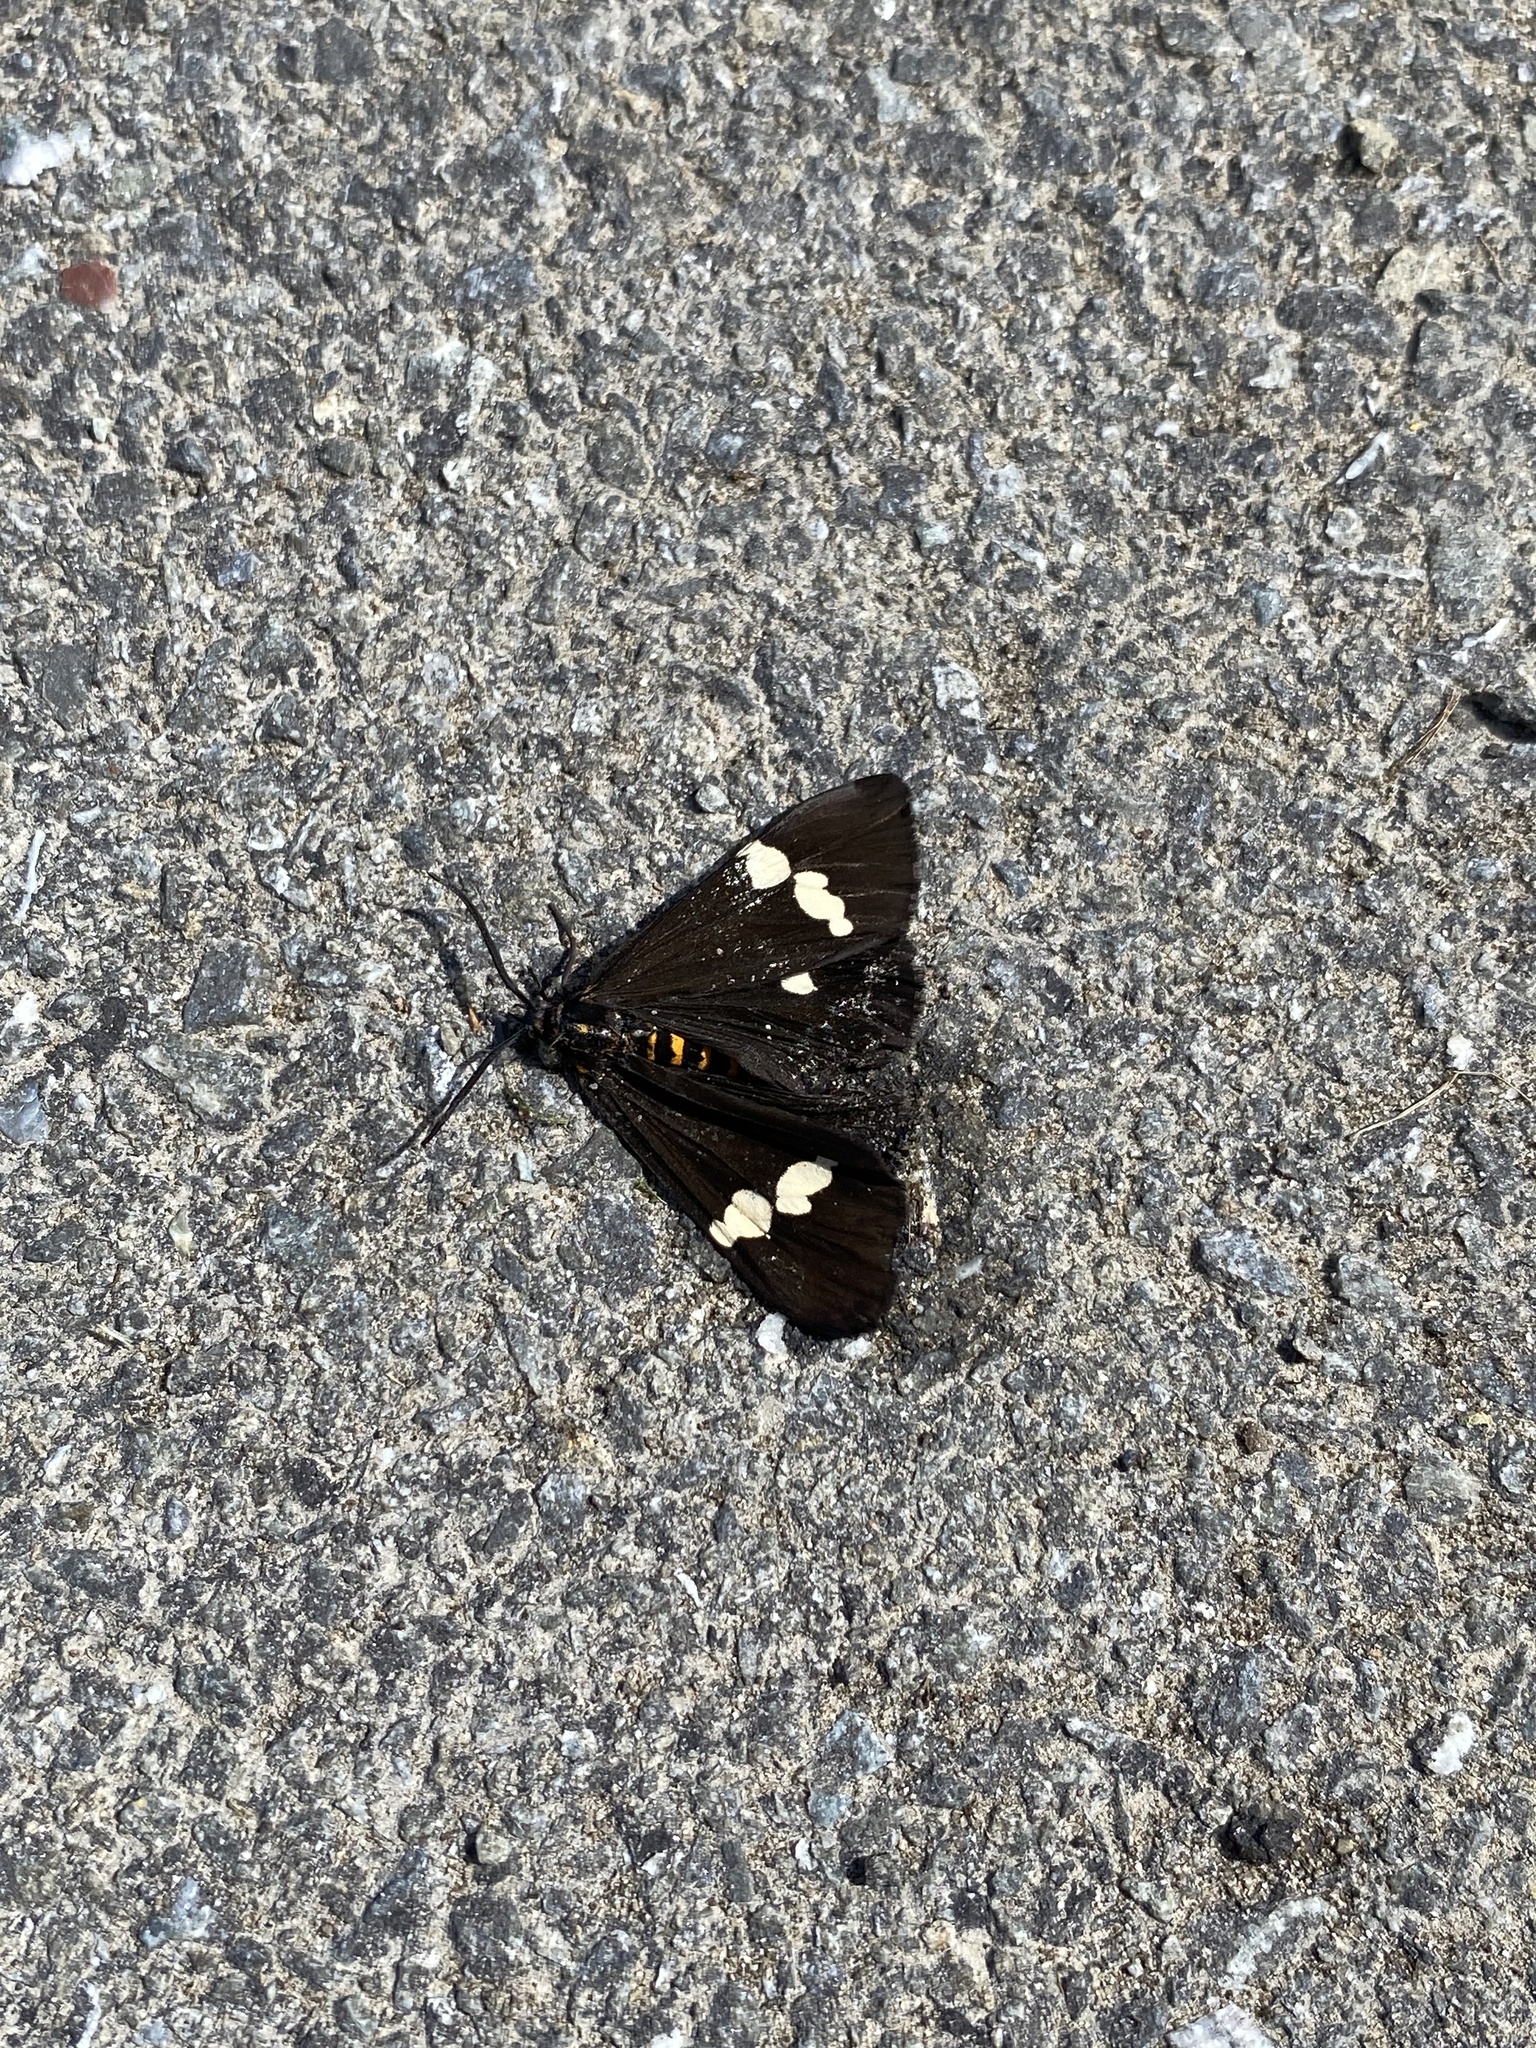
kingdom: Animalia
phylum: Arthropoda
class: Insecta
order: Lepidoptera
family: Erebidae
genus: Nyctemera
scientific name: Nyctemera annulatum
